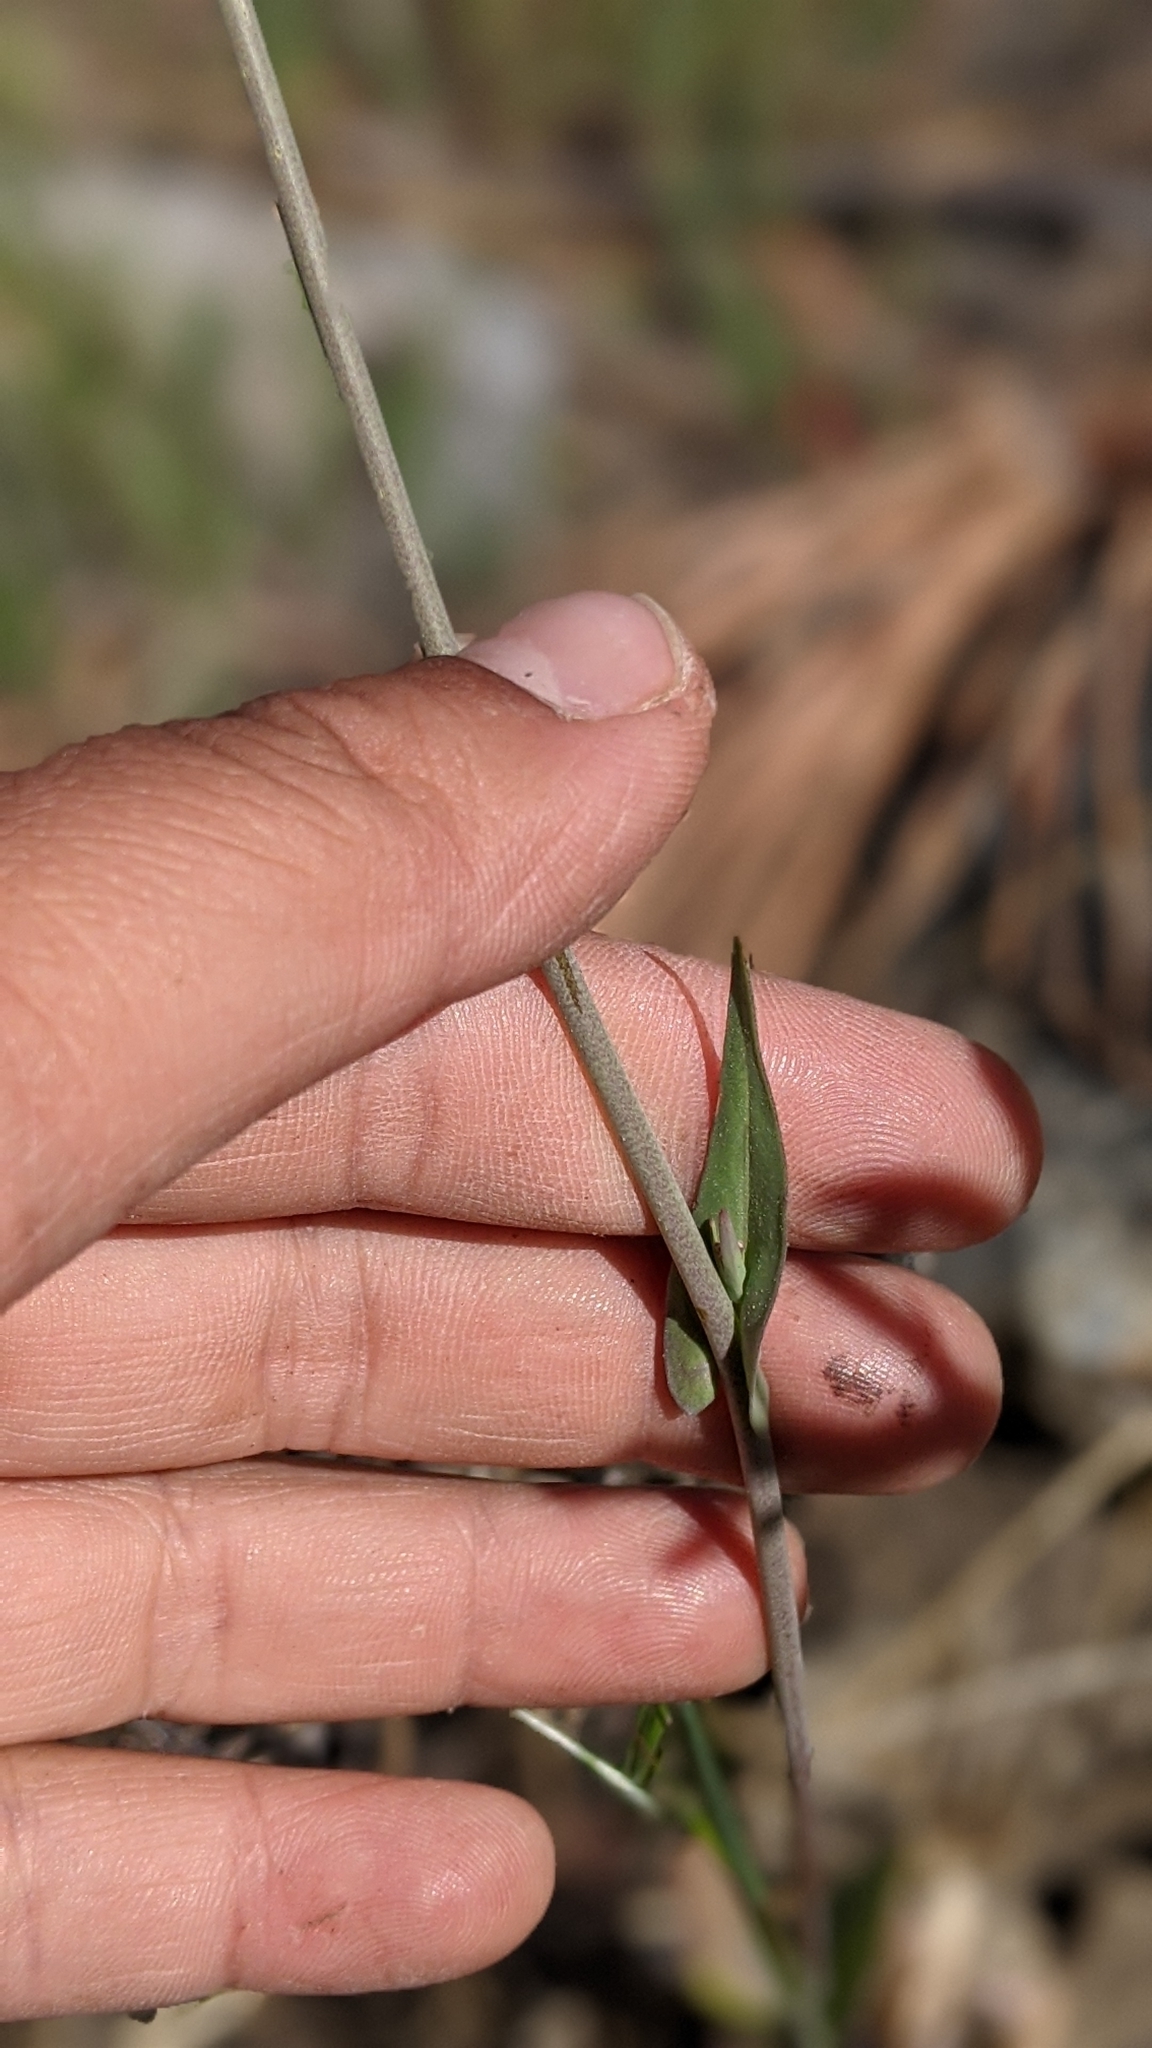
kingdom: Plantae
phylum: Tracheophyta
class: Magnoliopsida
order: Brassicales
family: Brassicaceae
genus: Thysanocarpus
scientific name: Thysanocarpus curvipes
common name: Sand fringepod
